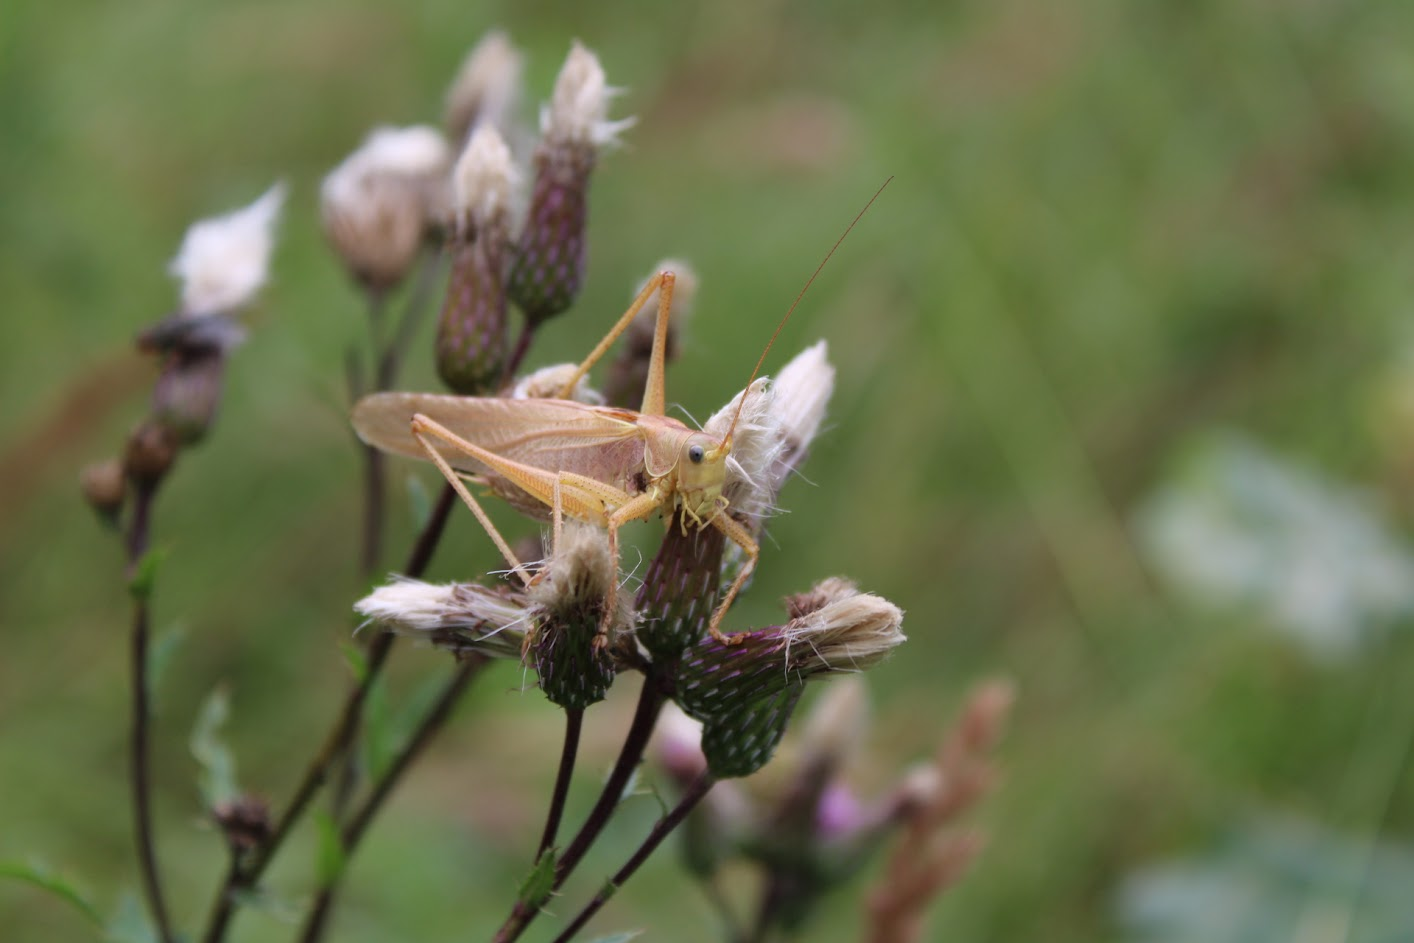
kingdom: Animalia
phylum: Arthropoda
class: Insecta
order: Orthoptera
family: Tettigoniidae
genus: Tettigonia
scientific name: Tettigonia viridissima
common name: Great green bush-cricket
